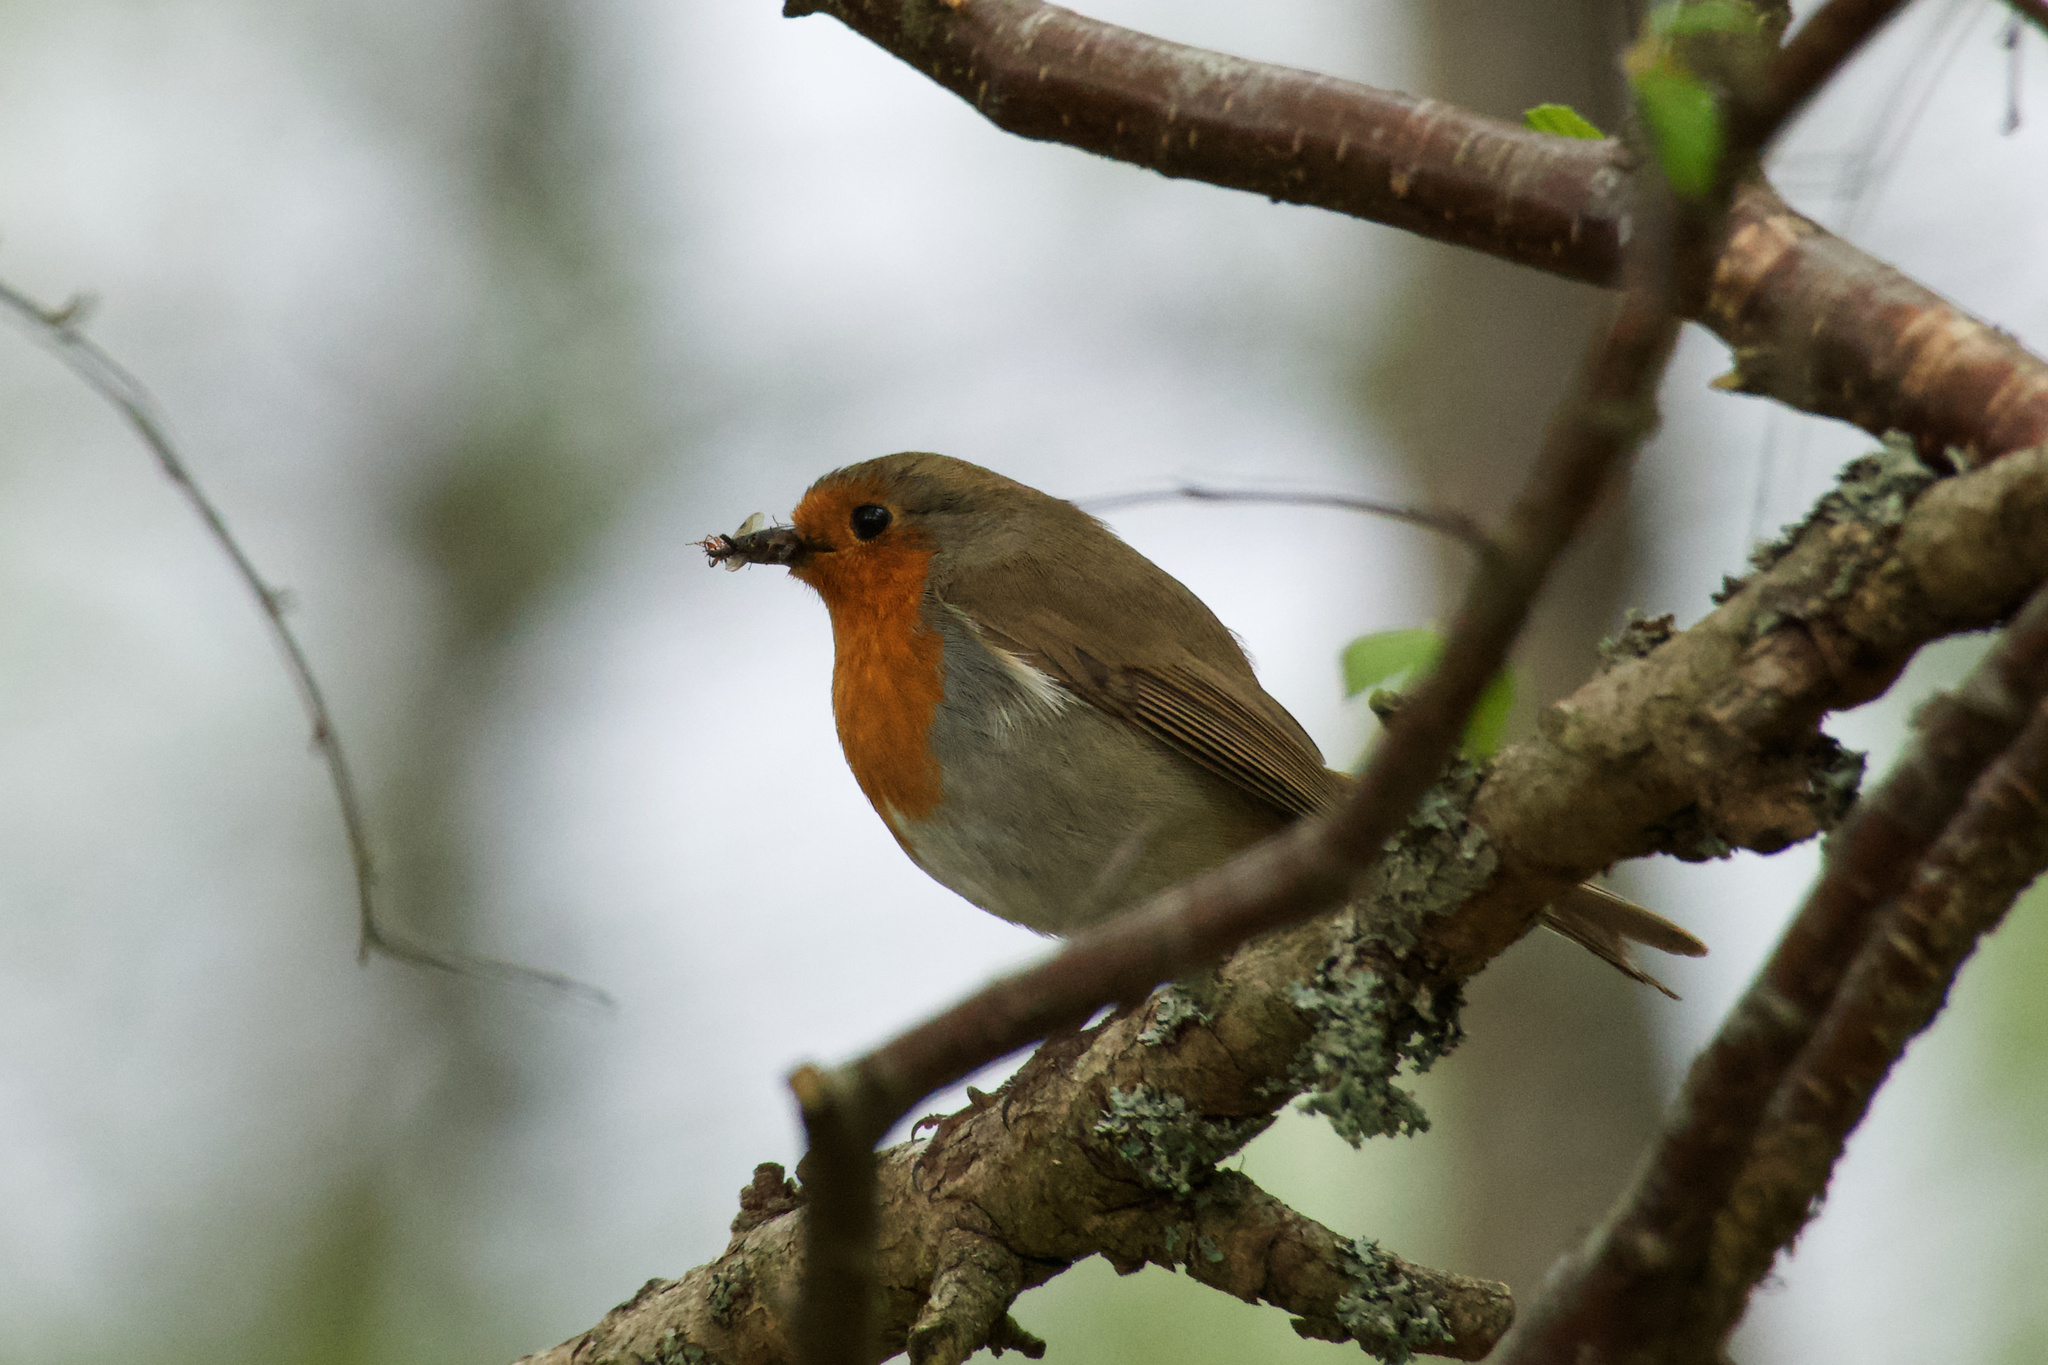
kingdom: Animalia
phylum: Chordata
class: Aves
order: Passeriformes
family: Muscicapidae
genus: Erithacus
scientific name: Erithacus rubecula
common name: European robin
